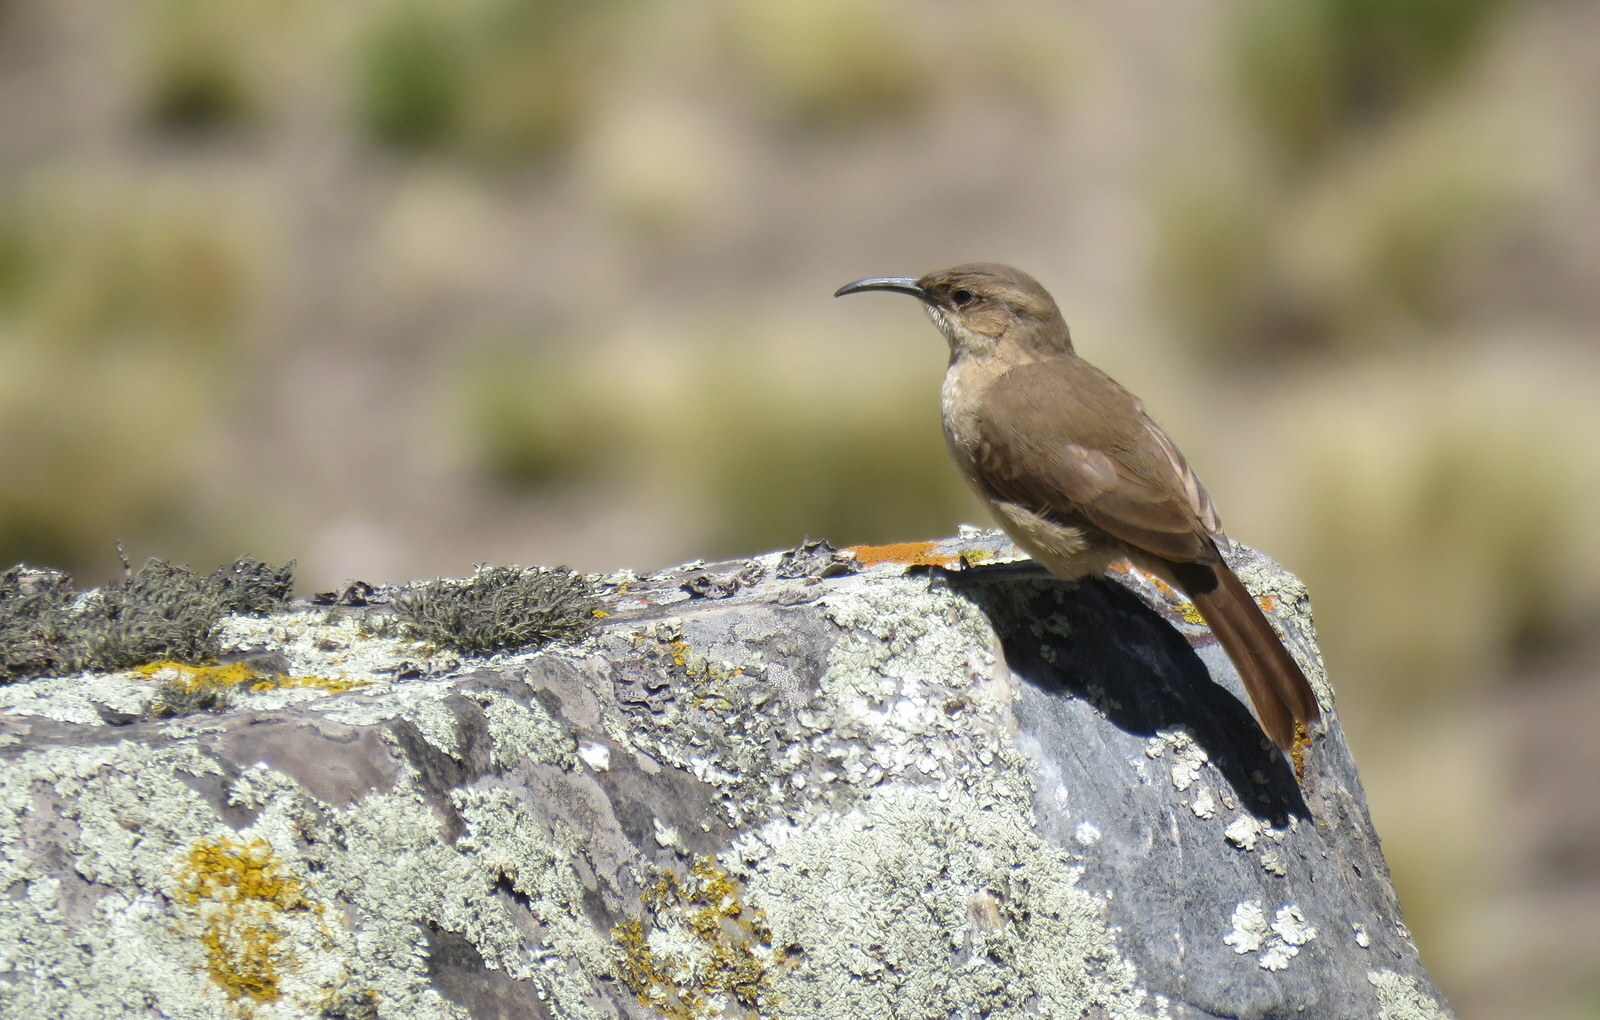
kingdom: Animalia
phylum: Chordata
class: Aves
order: Passeriformes
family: Furnariidae
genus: Upucerthia
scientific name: Upucerthia validirostris
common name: Buff-breasted earthcreeper
